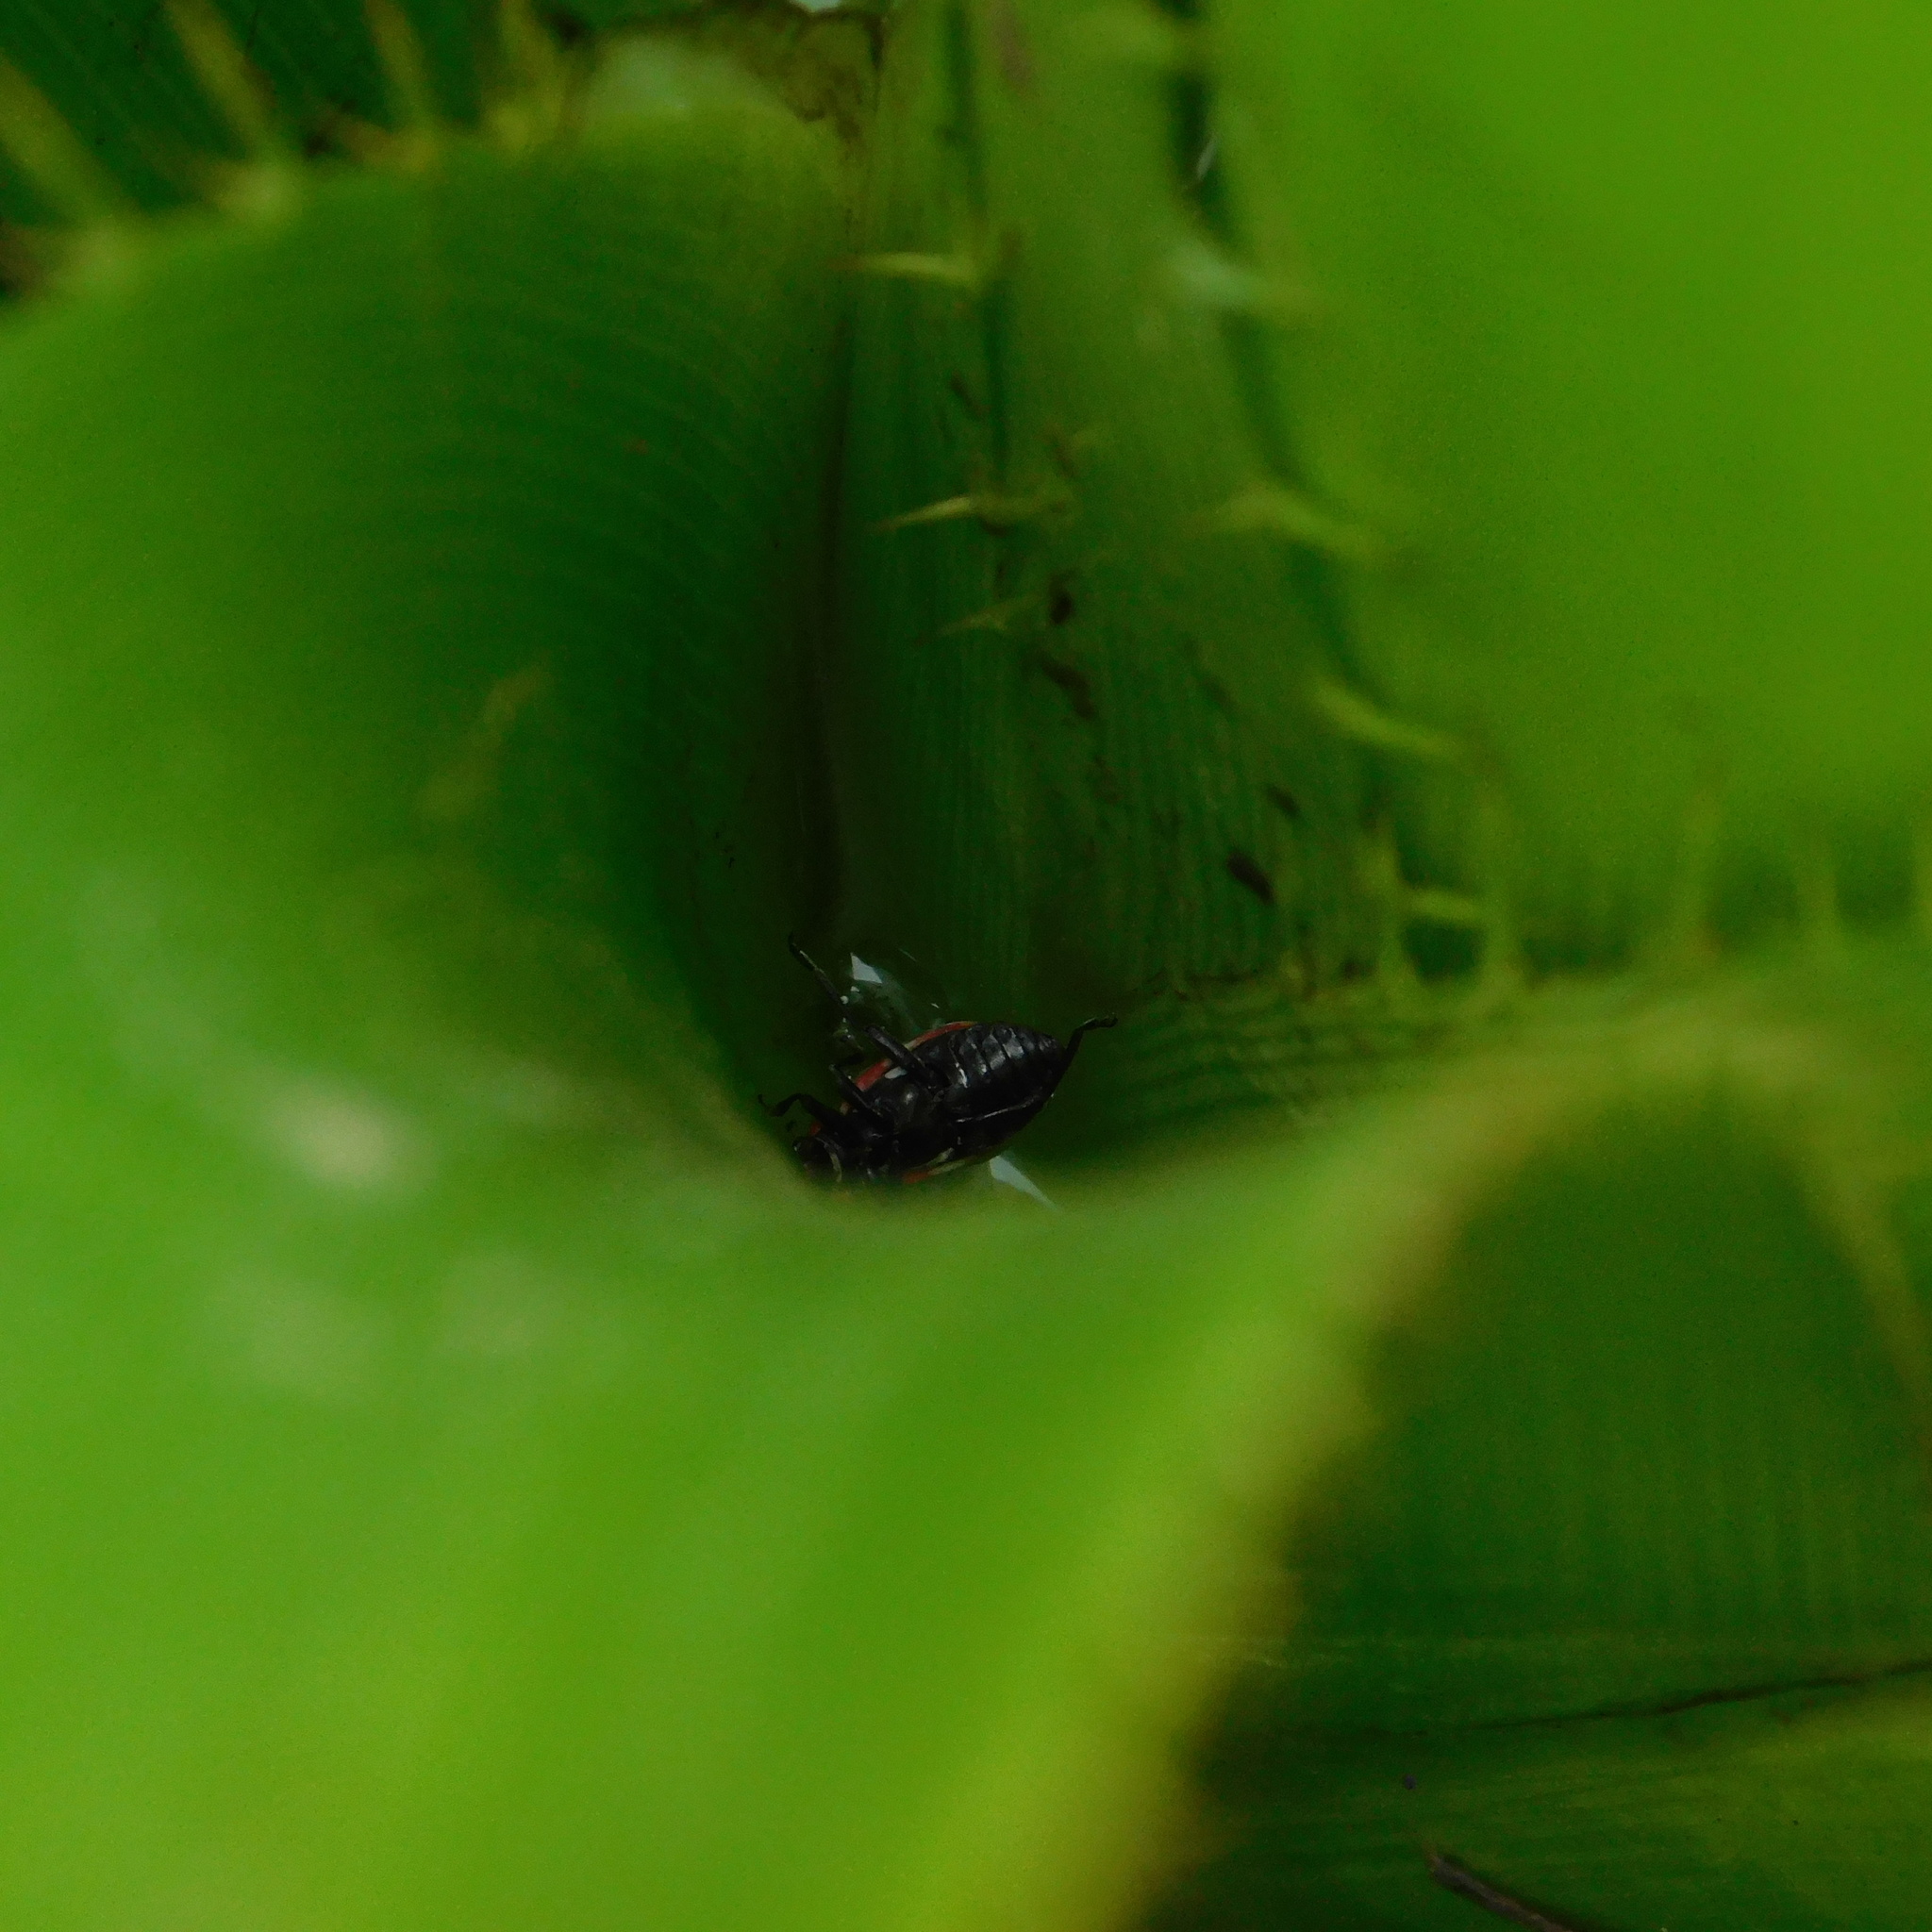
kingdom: Animalia
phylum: Arthropoda
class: Insecta
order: Coleoptera
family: Coccinellidae
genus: Eriopis
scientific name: Eriopis connexa
